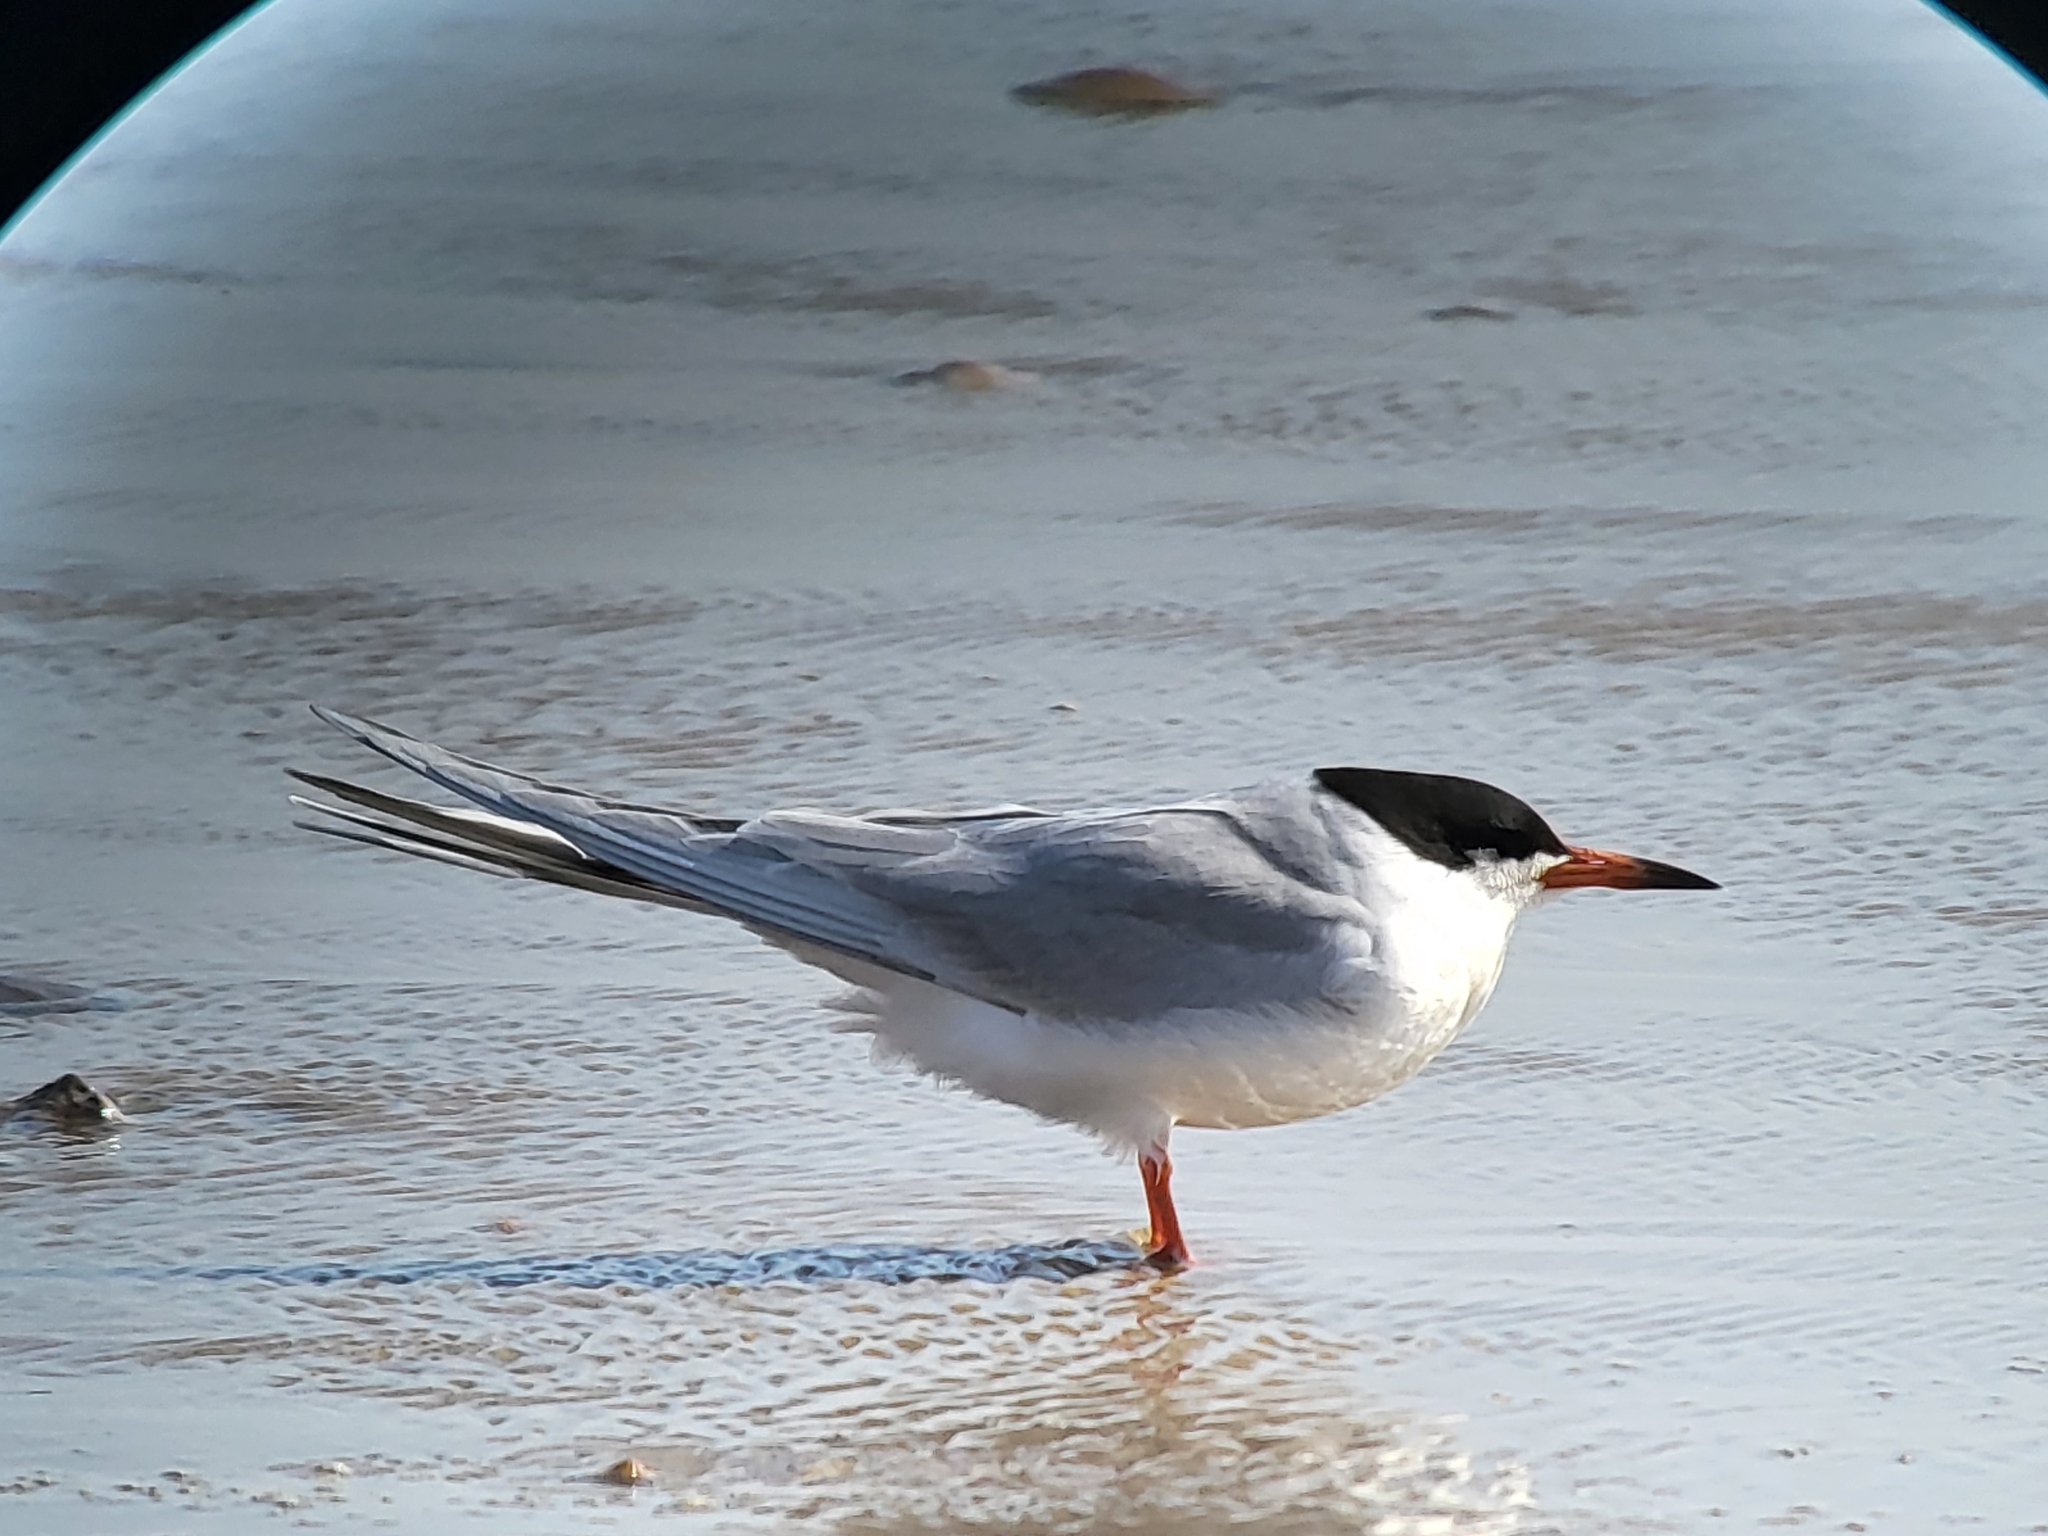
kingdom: Animalia
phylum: Chordata
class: Aves
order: Charadriiformes
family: Laridae
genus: Sterna
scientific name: Sterna forsteri
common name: Forster's tern
